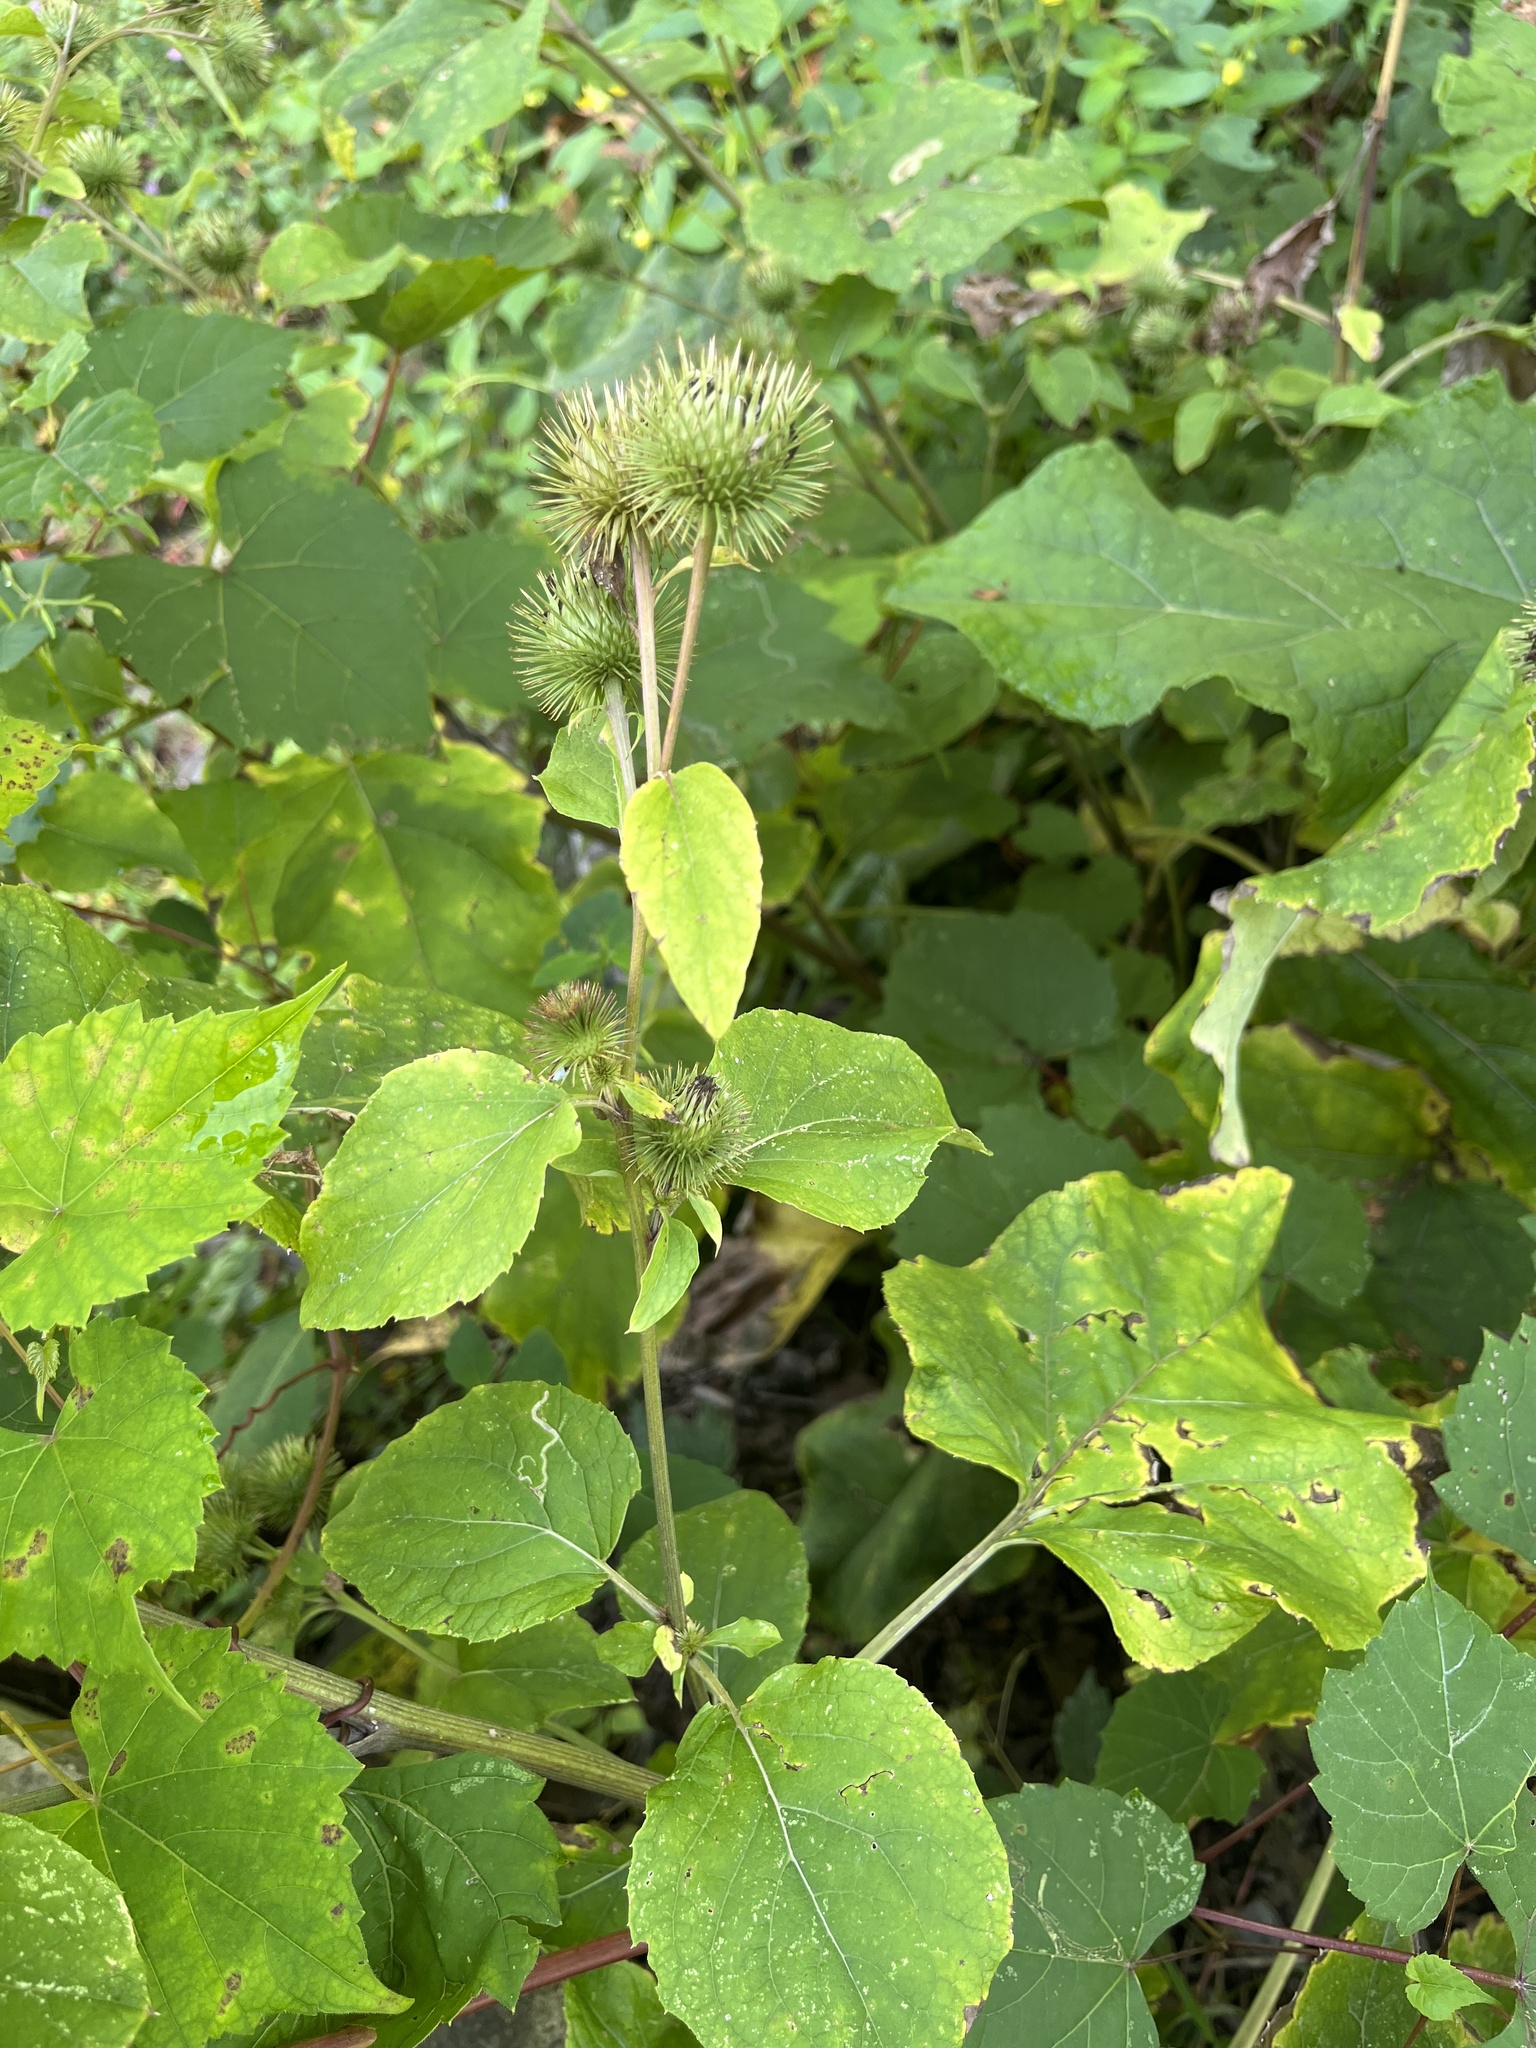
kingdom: Plantae
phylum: Tracheophyta
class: Magnoliopsida
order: Asterales
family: Asteraceae
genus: Arctium
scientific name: Arctium lappa
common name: Greater burdock
